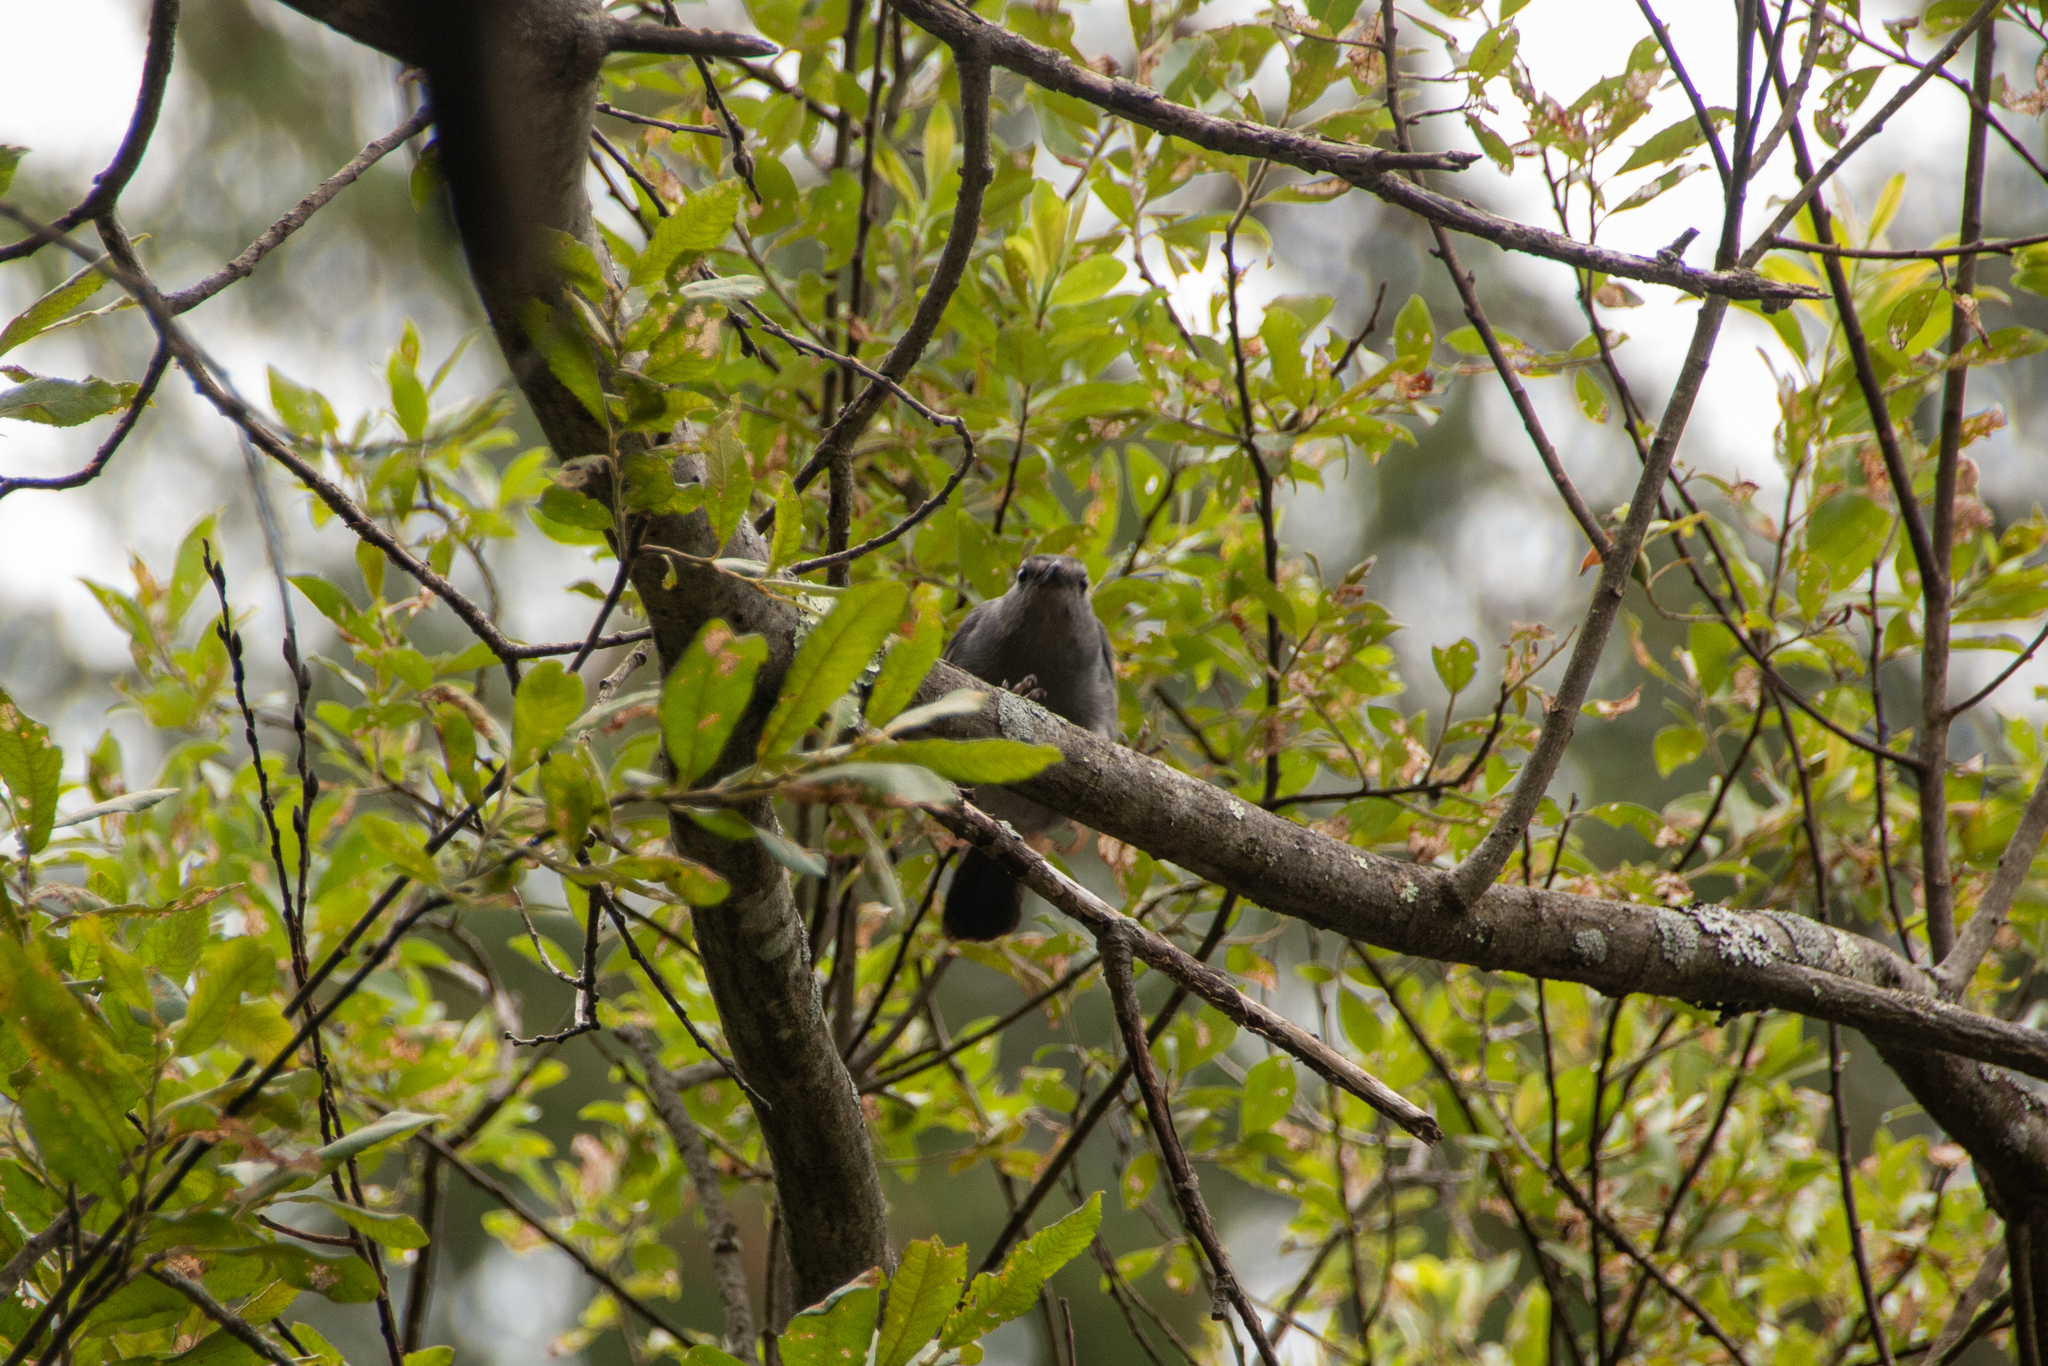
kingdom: Animalia
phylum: Chordata
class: Aves
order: Passeriformes
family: Mimidae
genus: Dumetella
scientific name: Dumetella carolinensis
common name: Gray catbird
